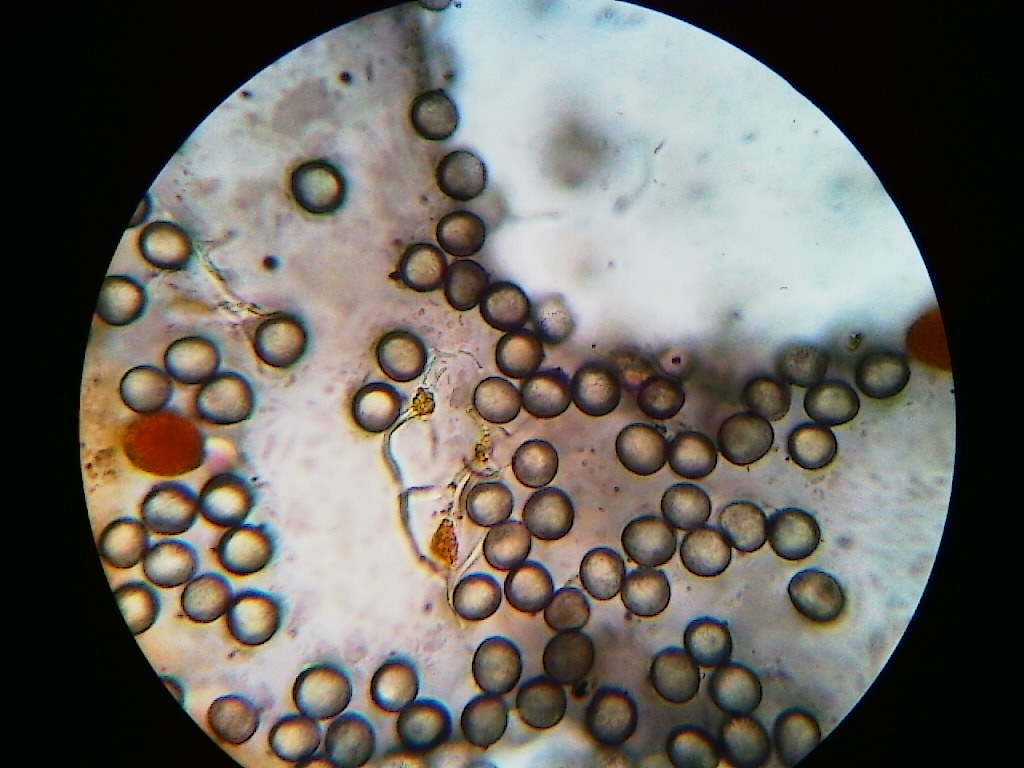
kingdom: Protozoa
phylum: Mycetozoa
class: Myxomycetes
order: Physarales
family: Physaraceae
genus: Physarum
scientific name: Physarum psittacinum
